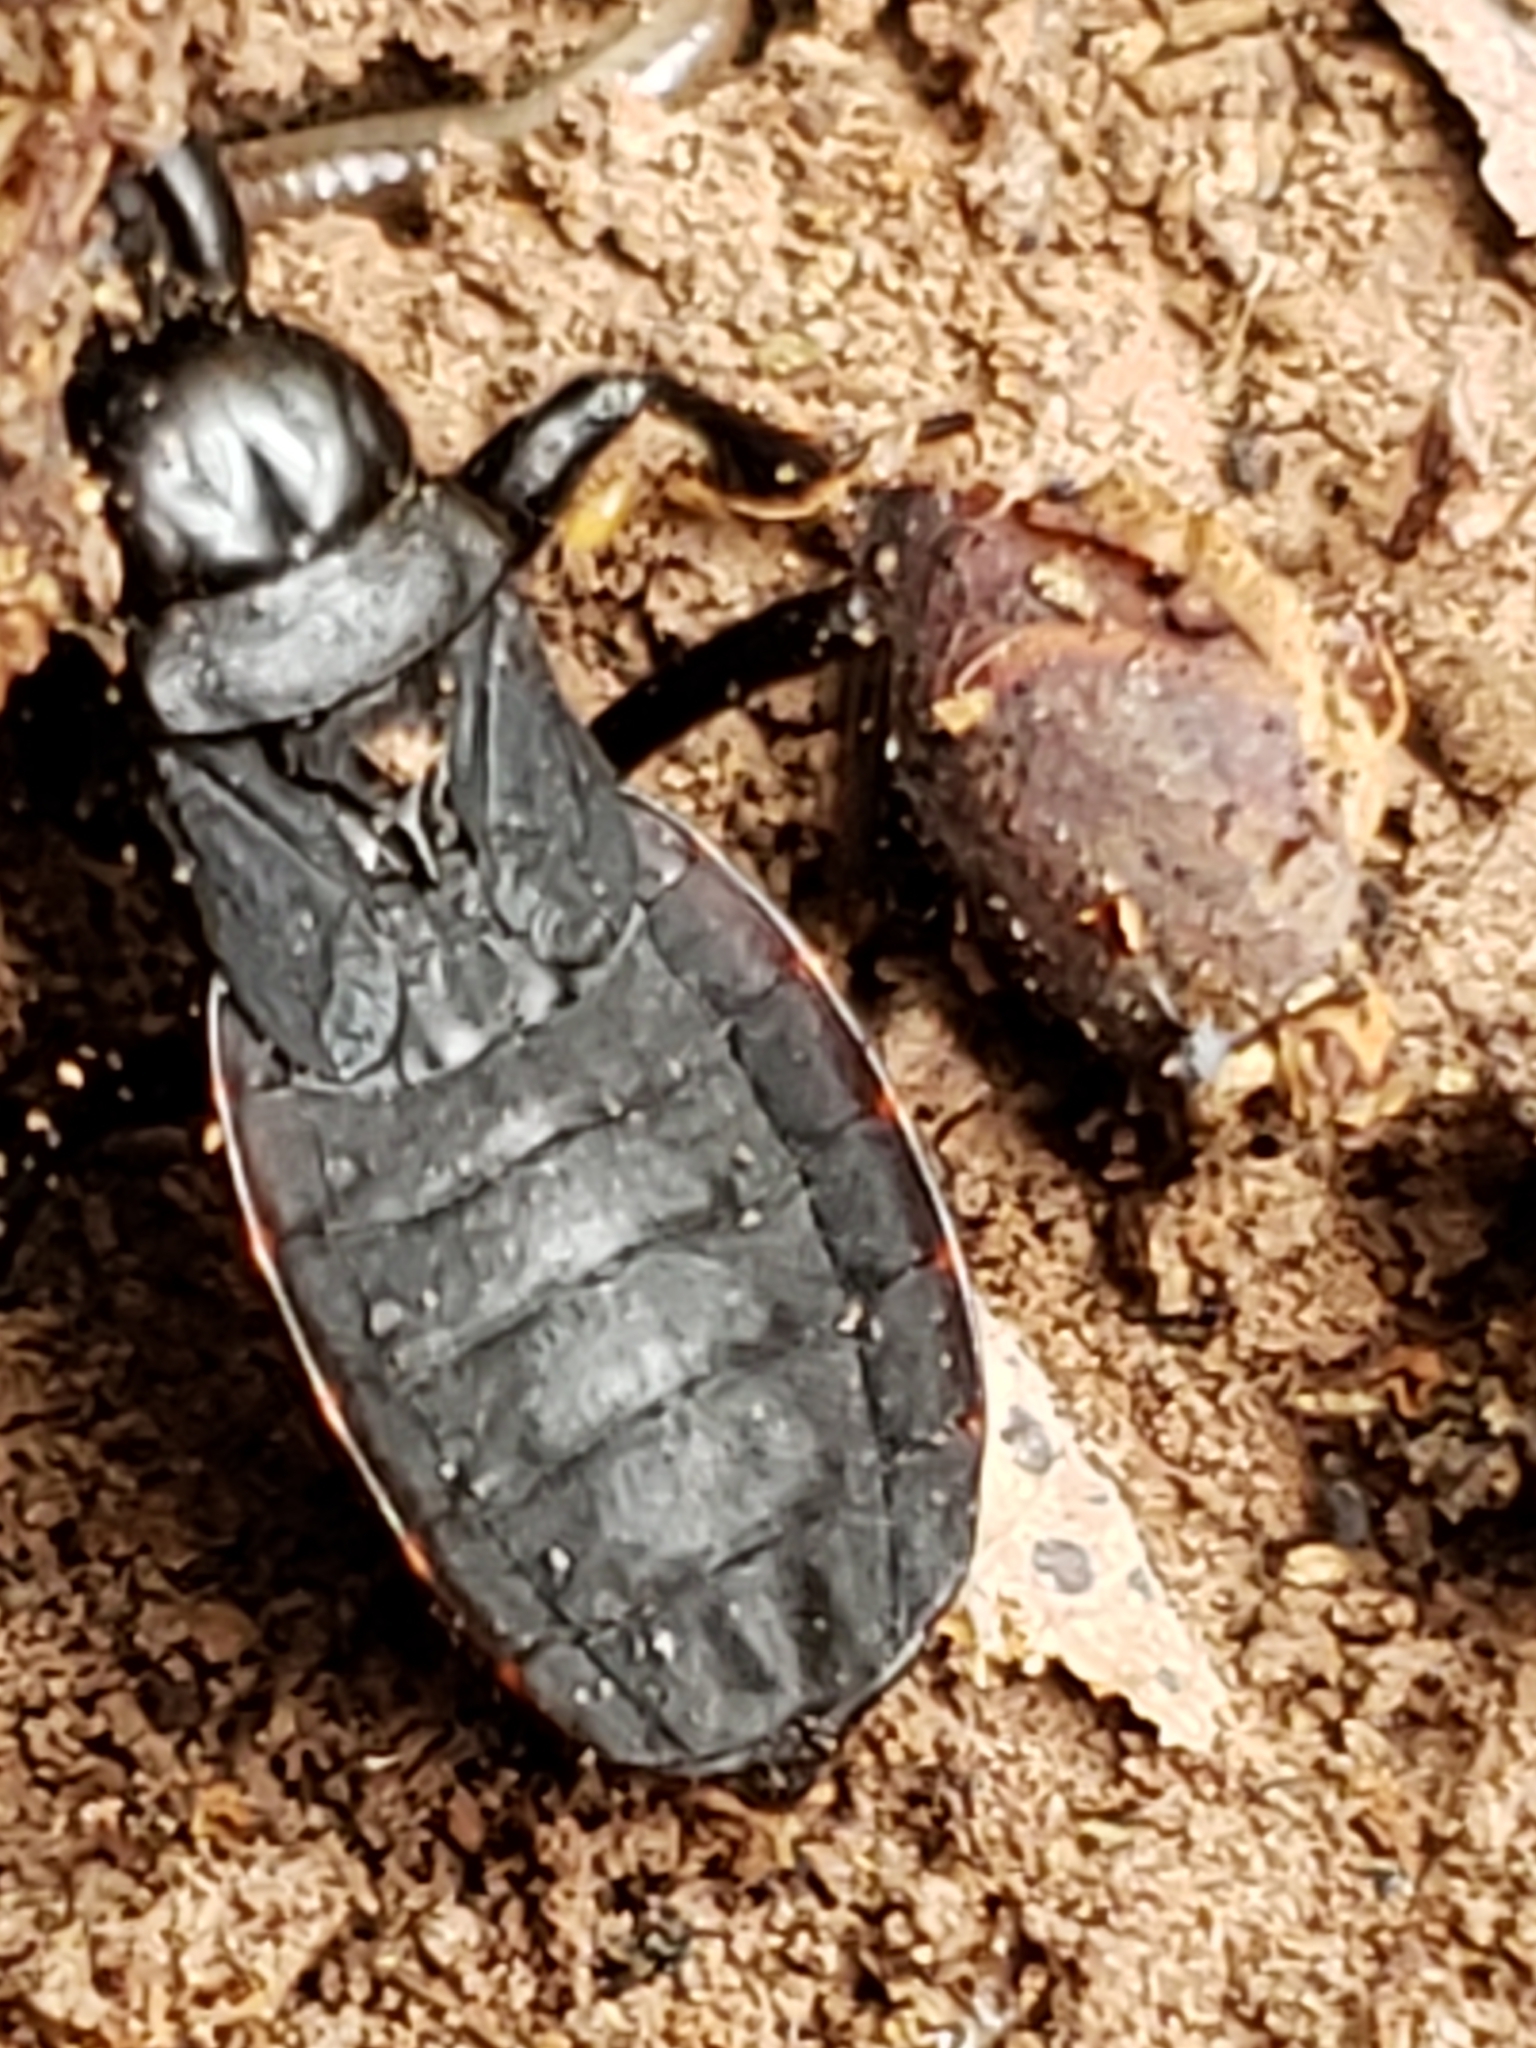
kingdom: Animalia
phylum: Arthropoda
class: Insecta
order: Hemiptera
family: Reduviidae
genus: Melanolestes
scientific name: Melanolestes picipes
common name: Assassin bug
